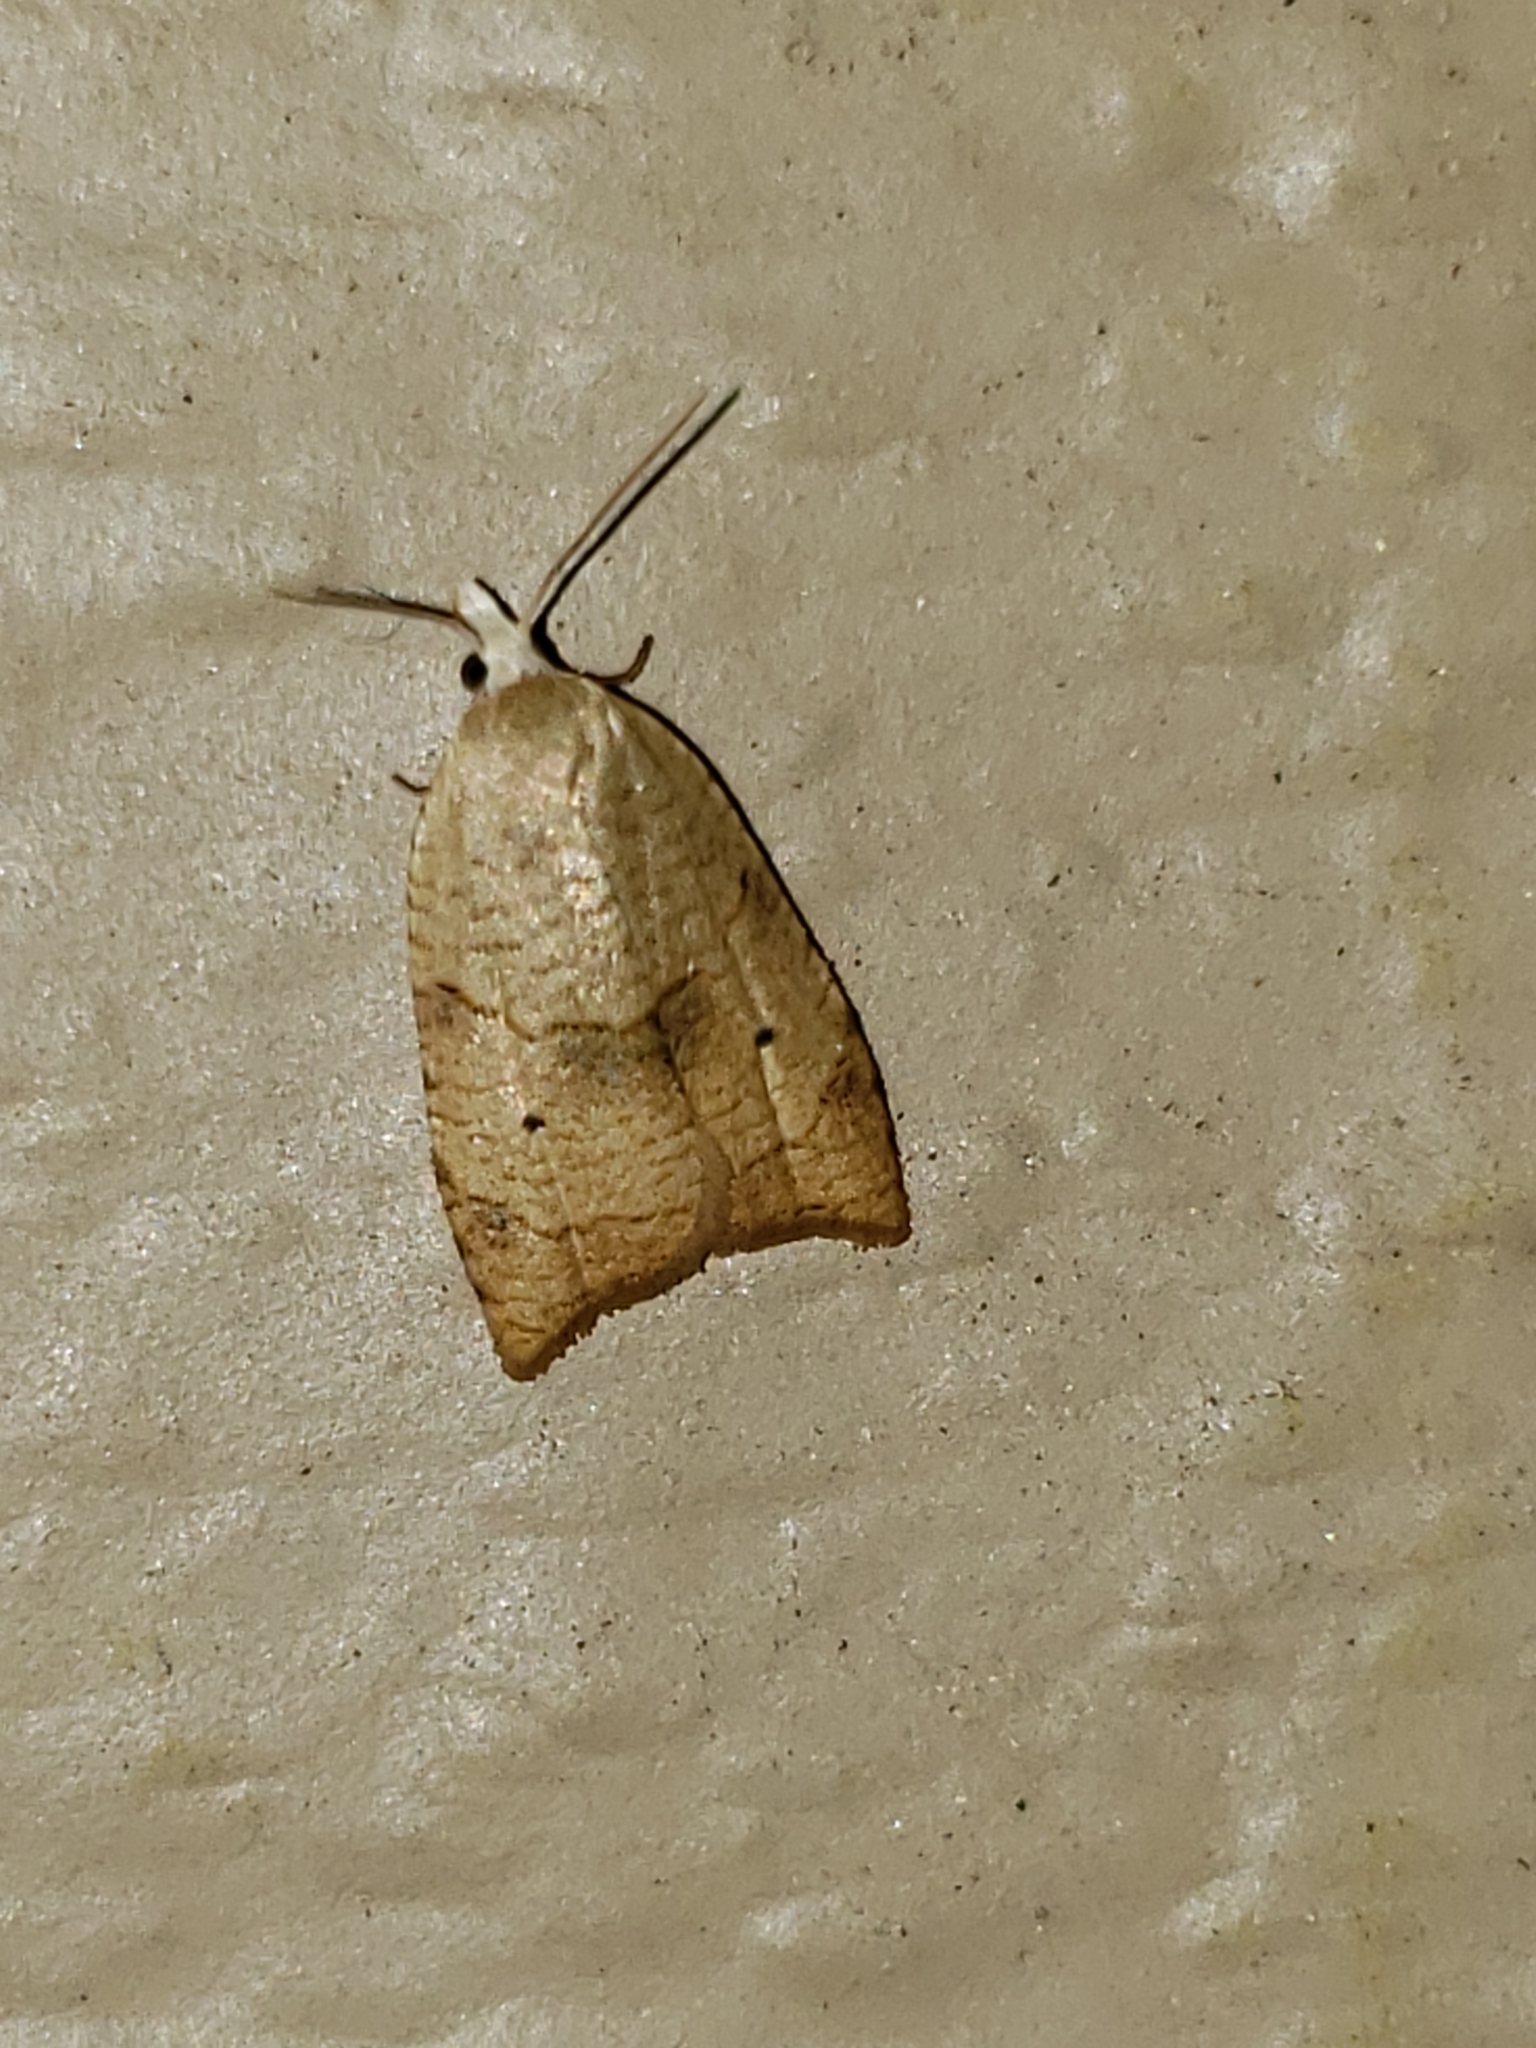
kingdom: Animalia
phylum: Arthropoda
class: Insecta
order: Lepidoptera
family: Tortricidae
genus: Coelostathma
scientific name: Coelostathma discopunctana
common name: Batman moth
